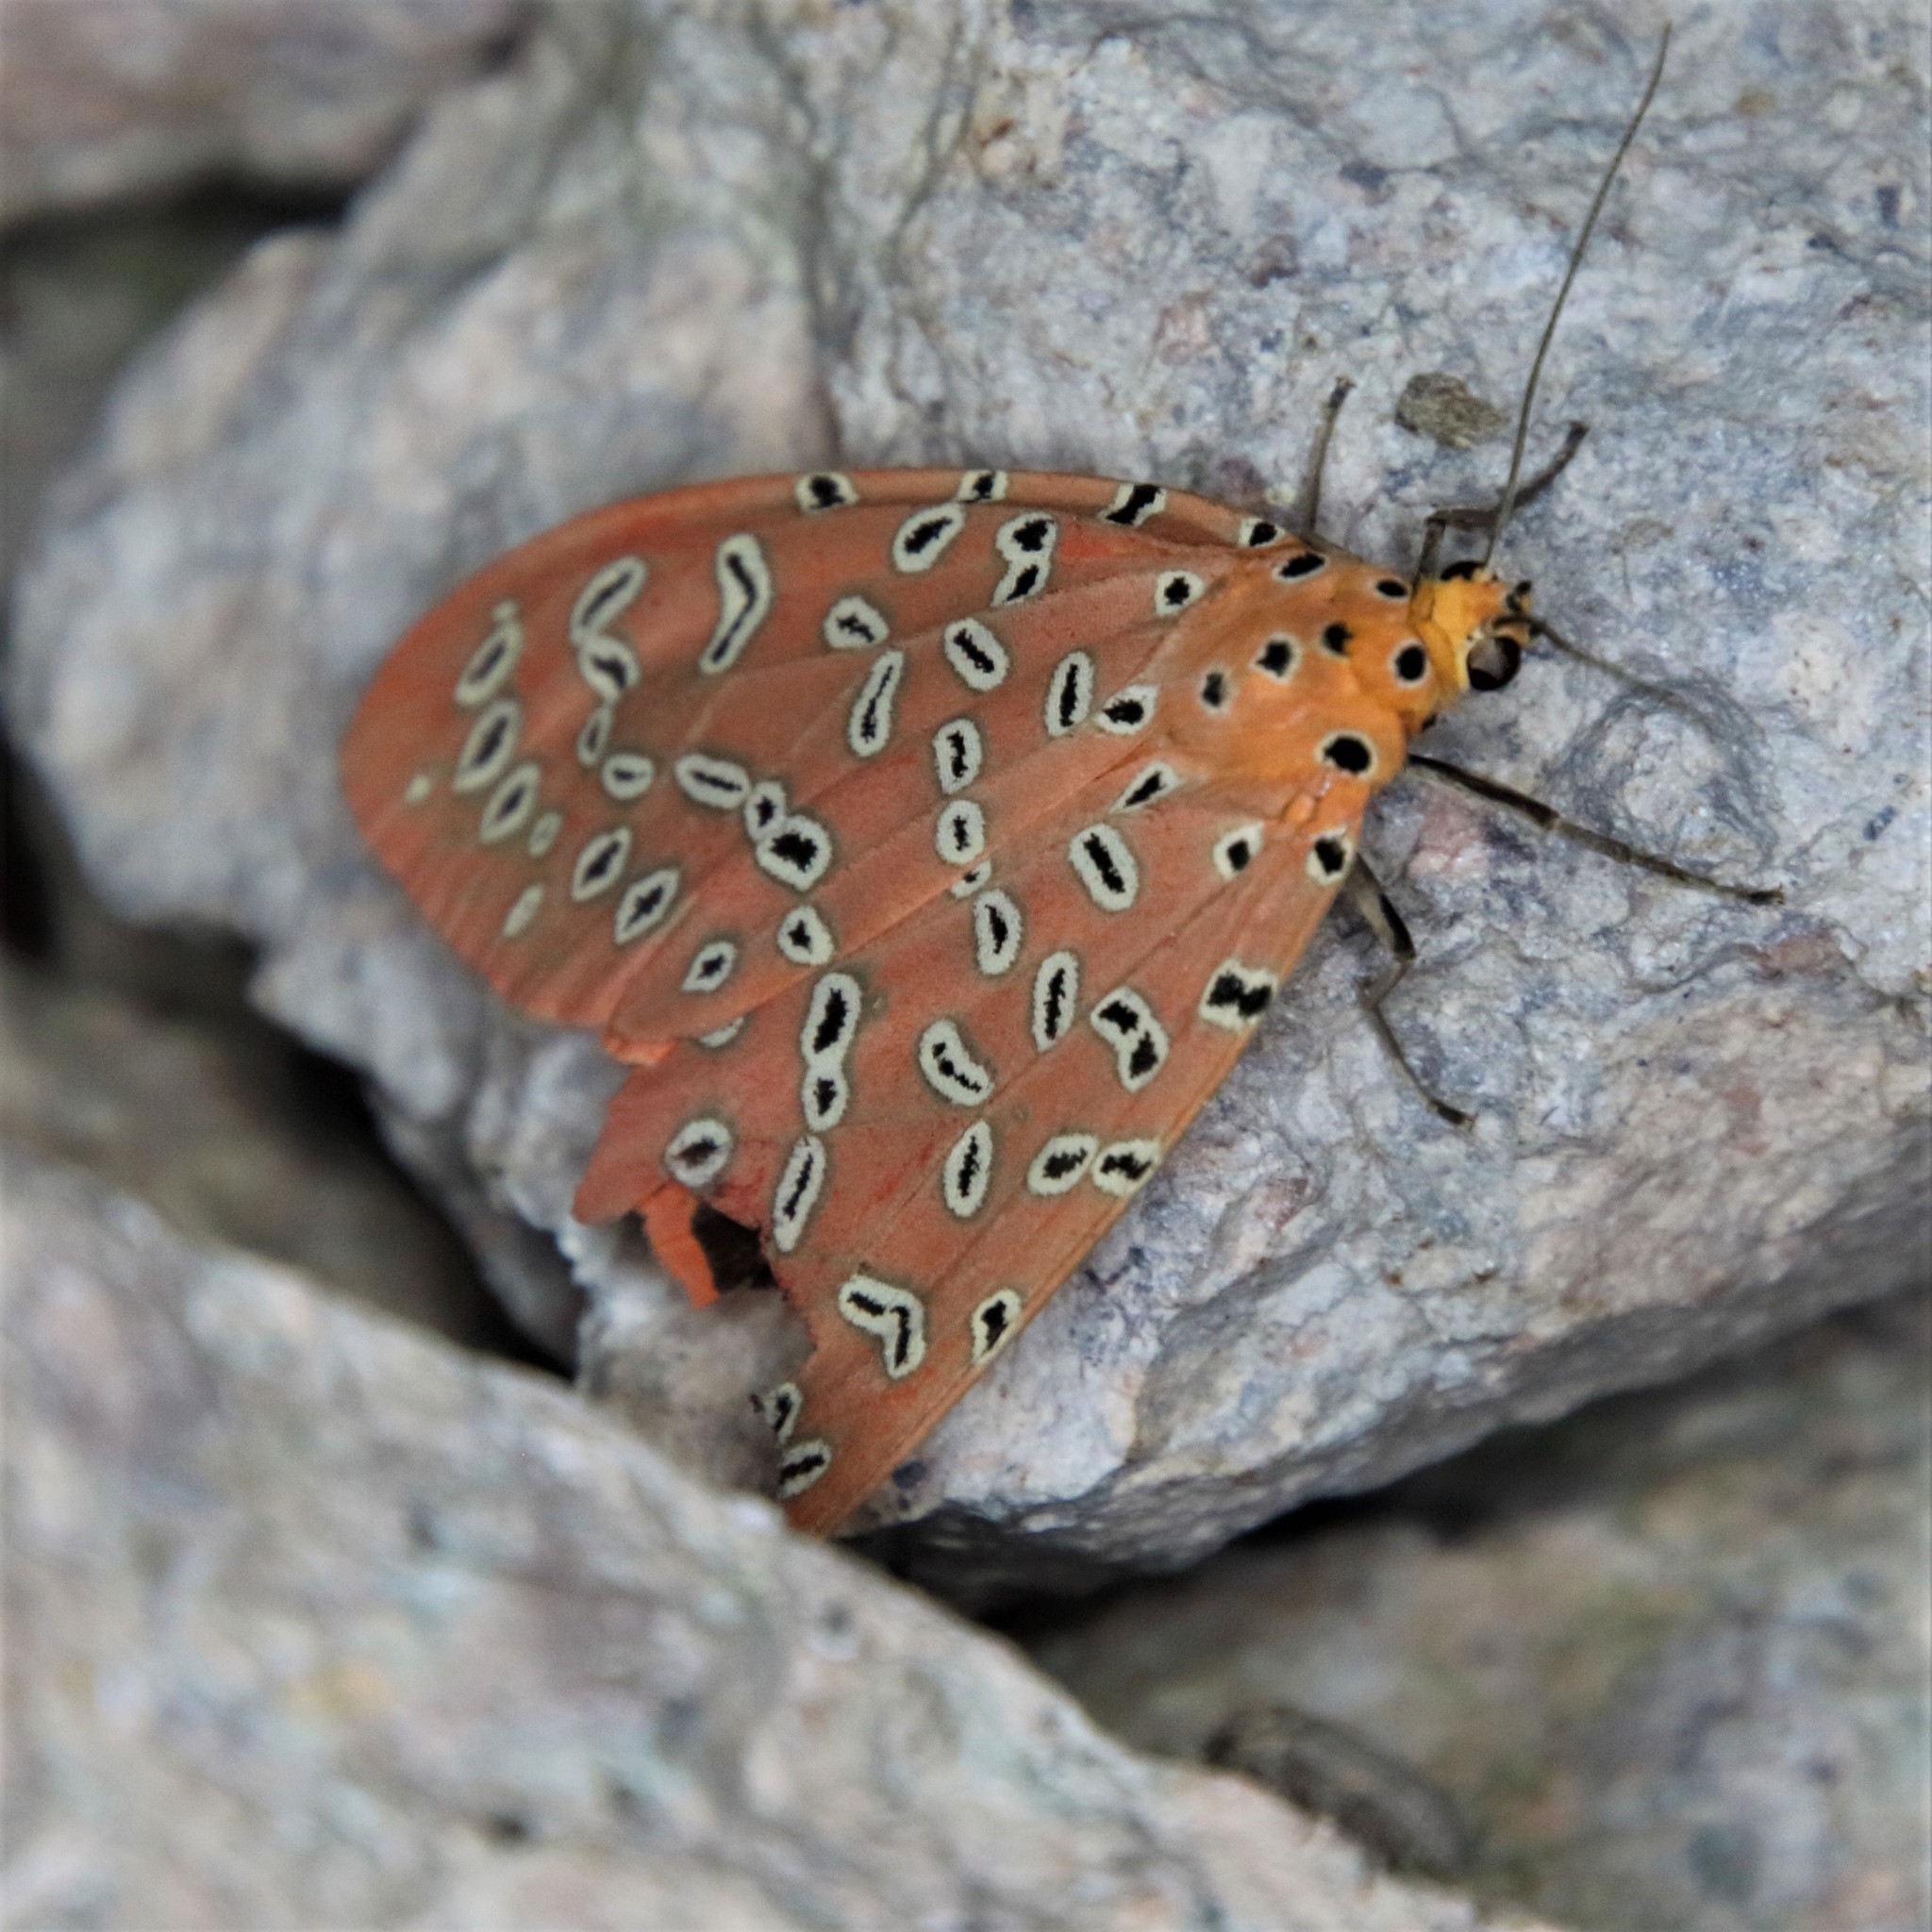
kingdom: Animalia
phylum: Arthropoda
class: Insecta
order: Lepidoptera
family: Erebidae
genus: Mangina
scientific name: Mangina argus
